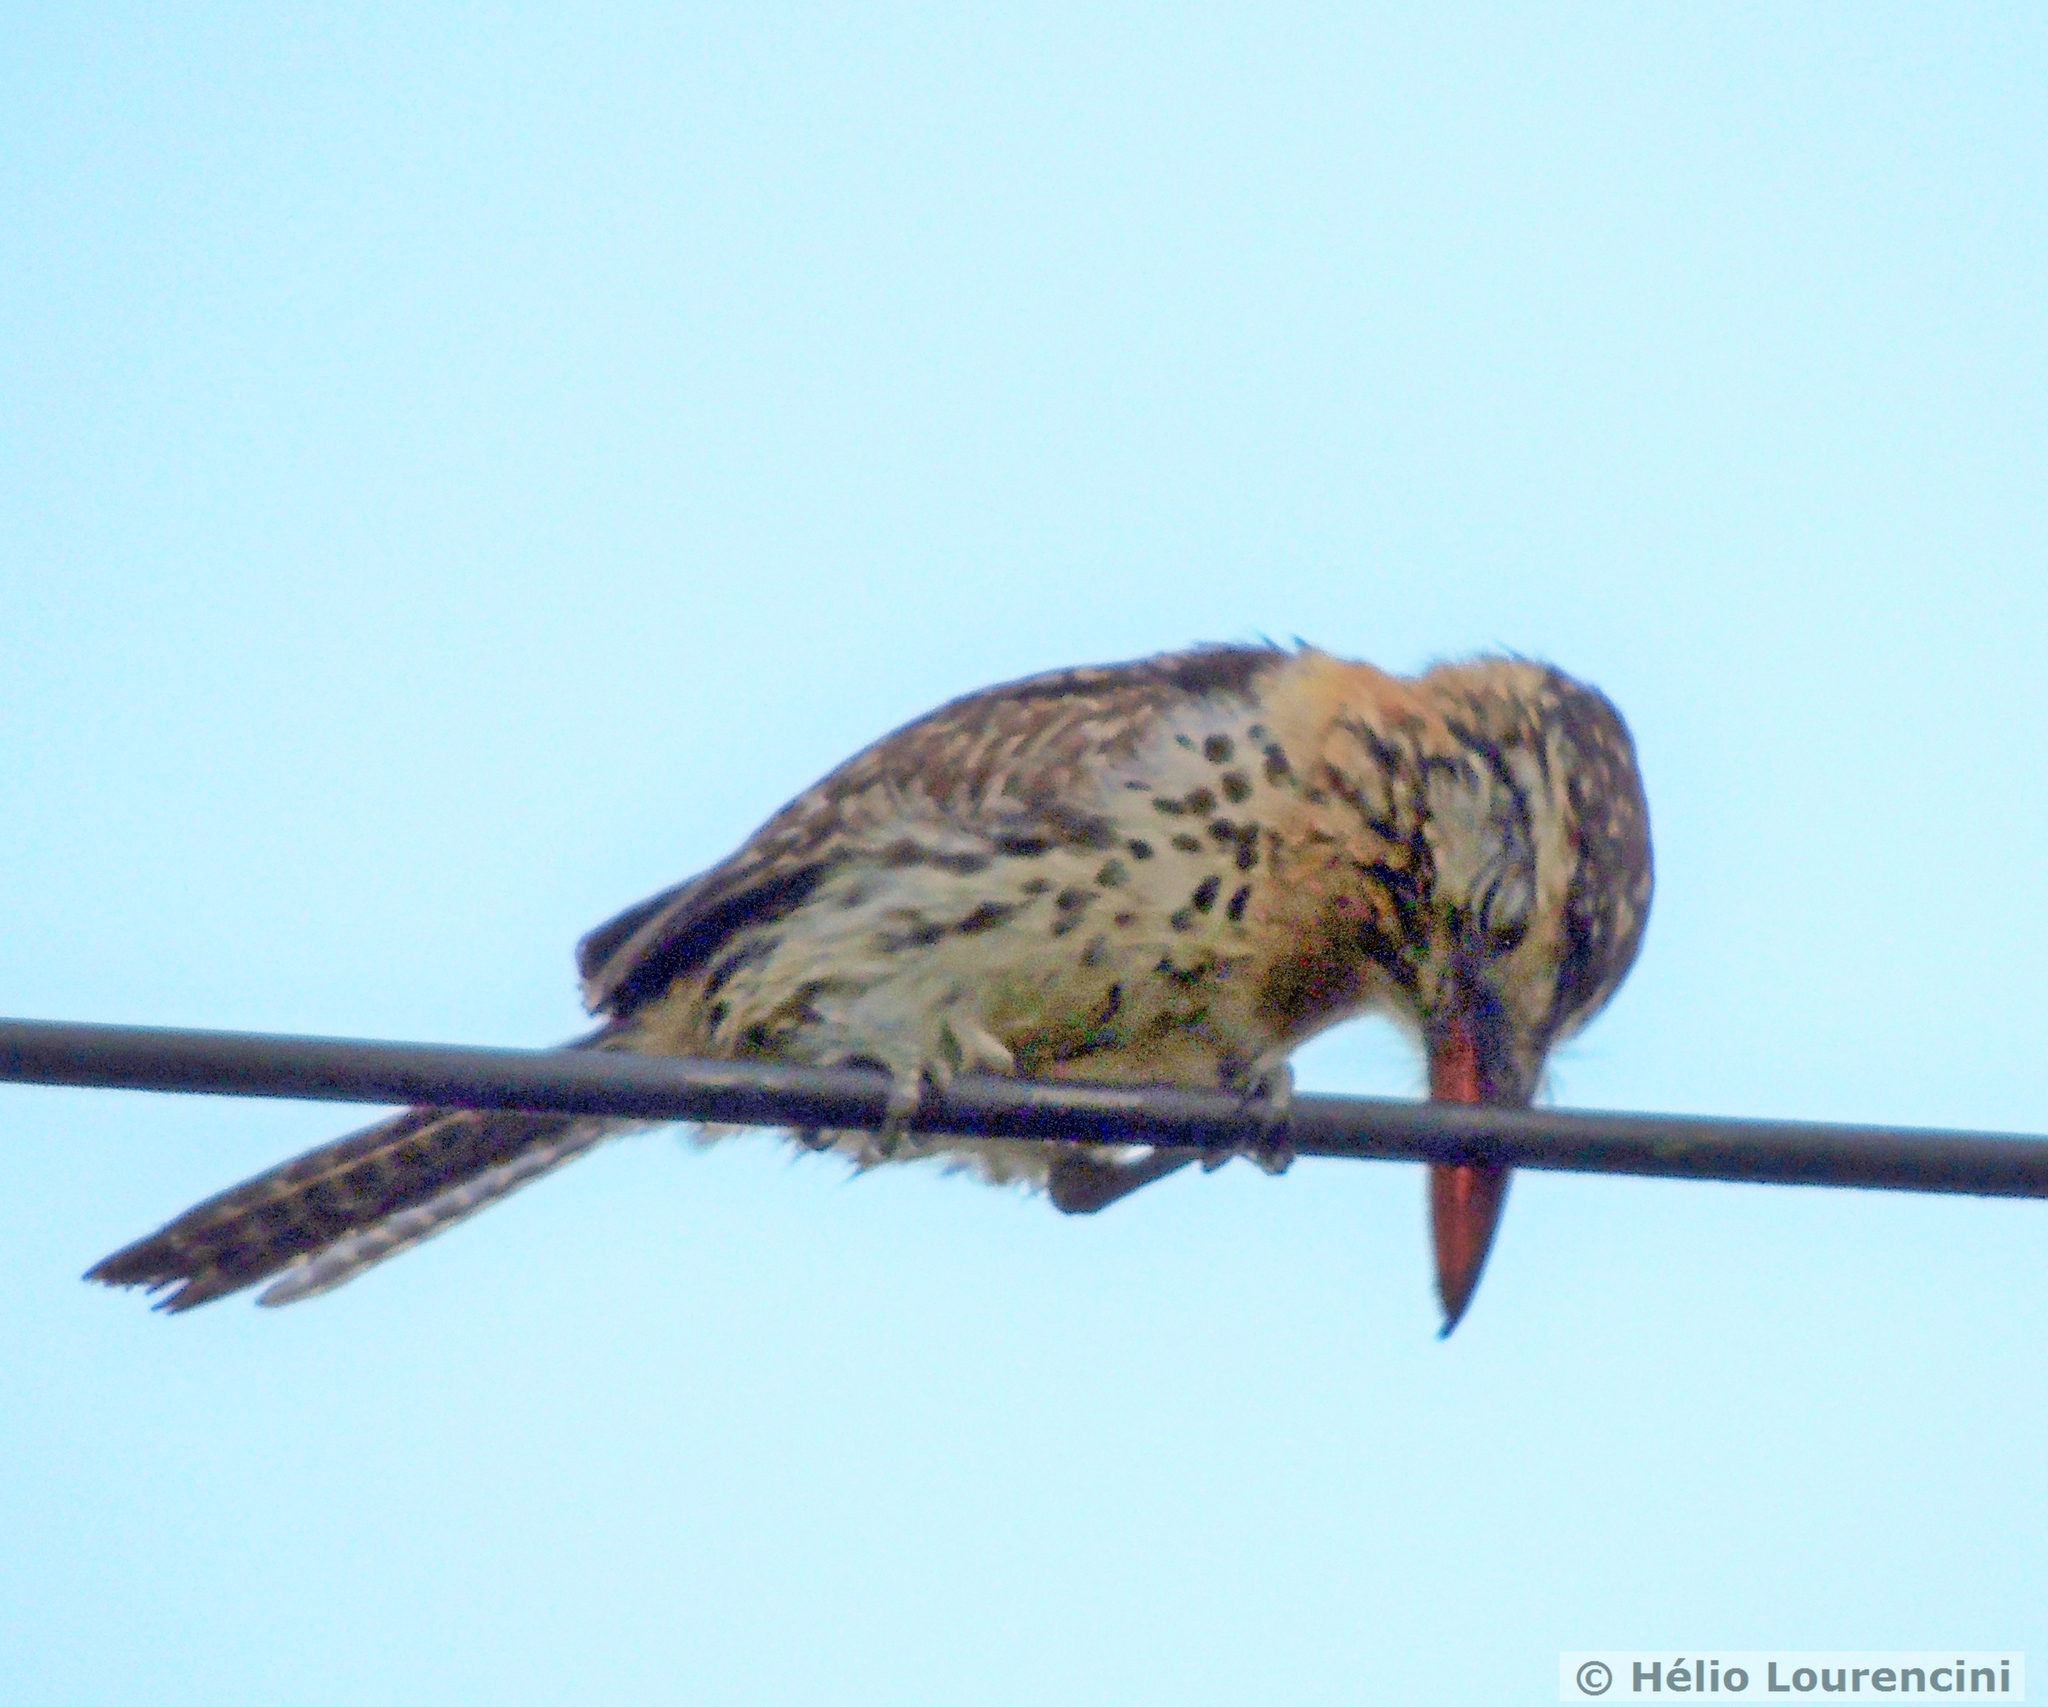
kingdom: Animalia
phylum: Chordata
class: Aves
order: Piciformes
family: Bucconidae
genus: Nystalus
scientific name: Nystalus maculatus
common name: Caatinga puffbird
